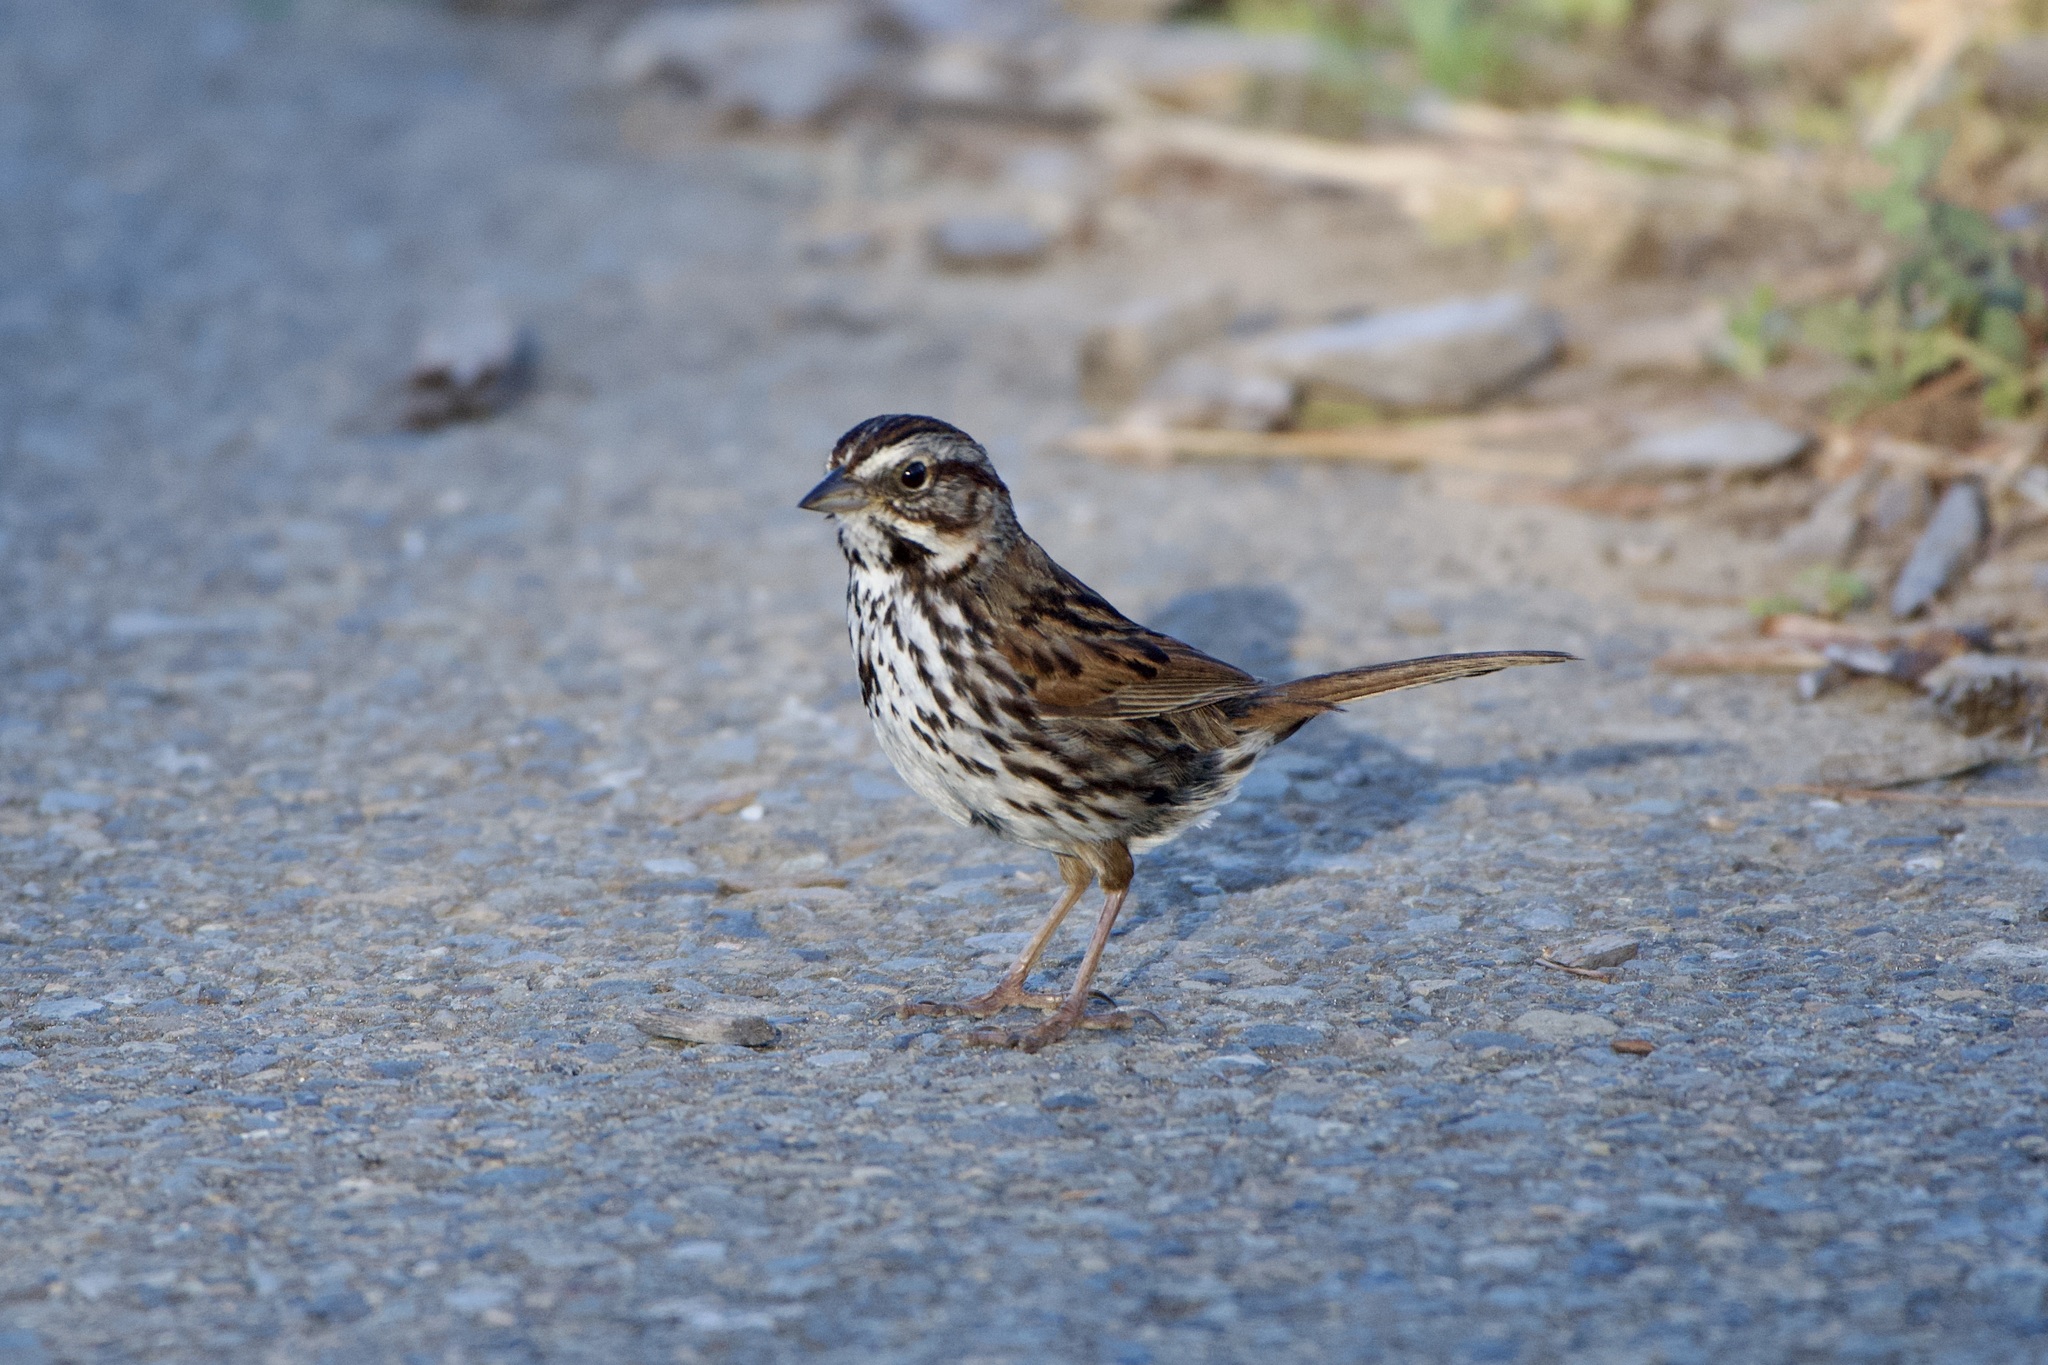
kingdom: Animalia
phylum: Chordata
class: Aves
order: Passeriformes
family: Passerellidae
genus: Melospiza
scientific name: Melospiza melodia
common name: Song sparrow
